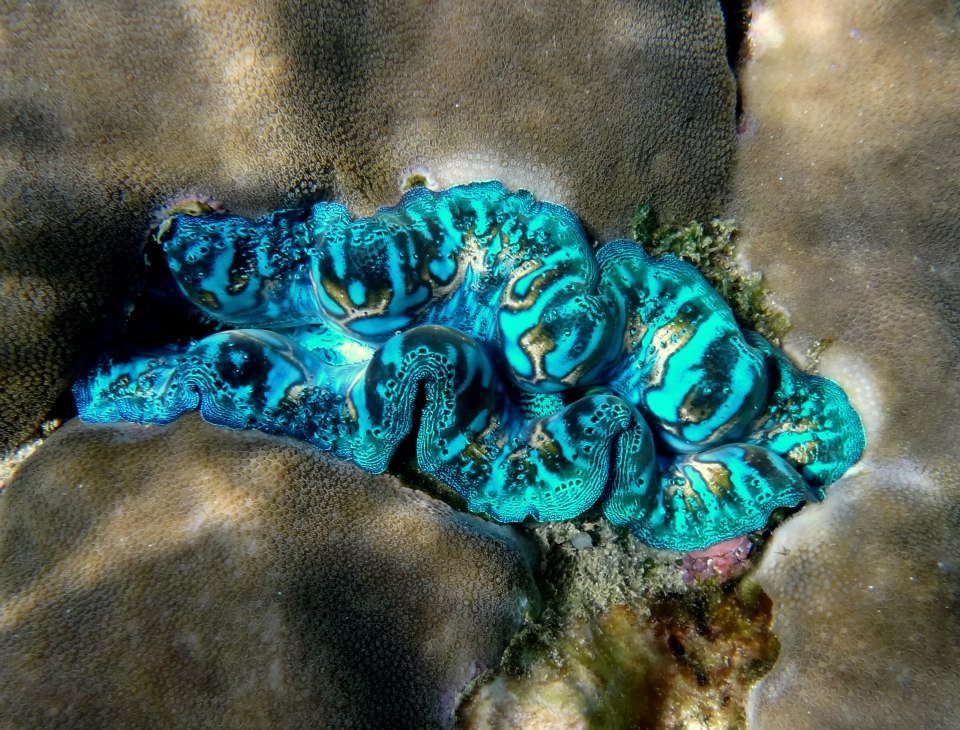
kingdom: Animalia
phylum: Mollusca
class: Bivalvia
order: Cardiida
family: Cardiidae
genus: Tridacna
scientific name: Tridacna crocea
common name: Boring clam
